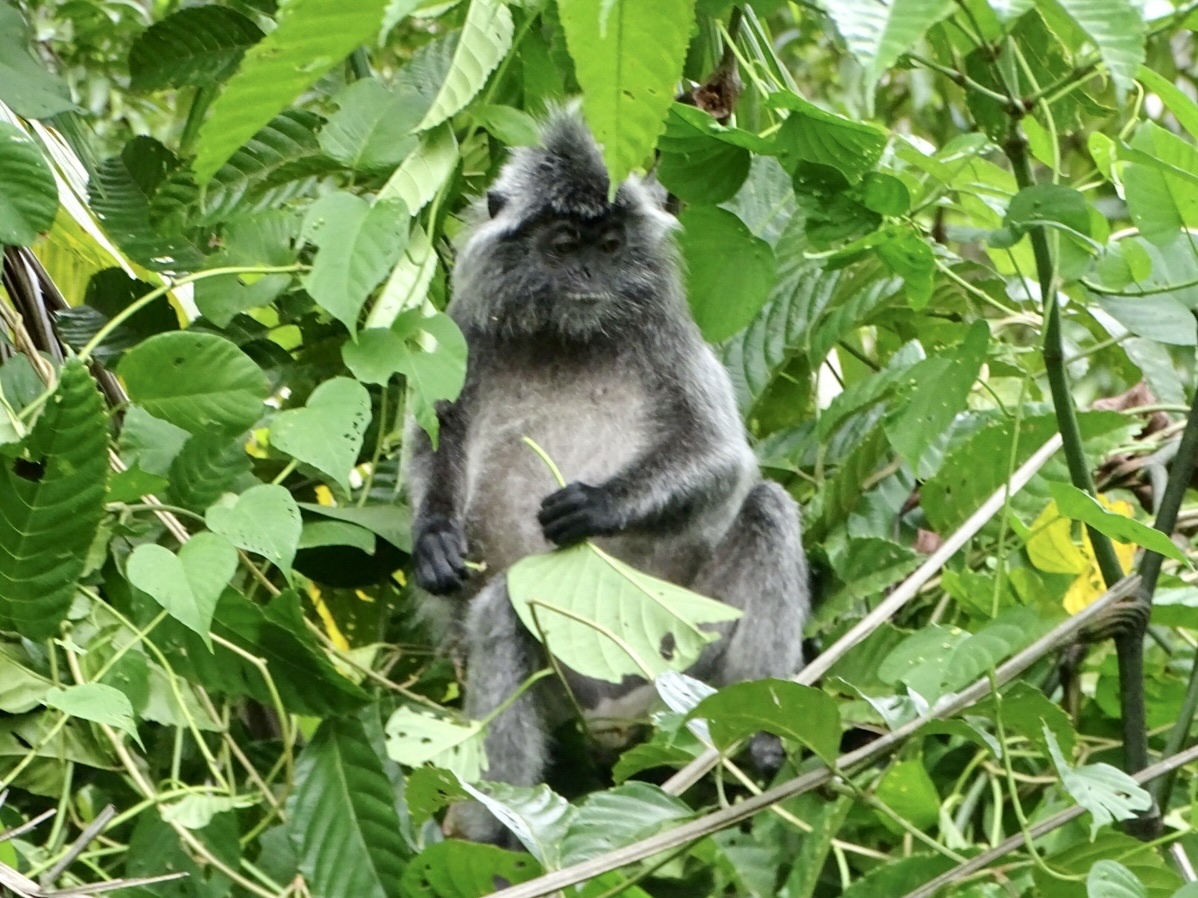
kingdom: Animalia
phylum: Chordata
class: Mammalia
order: Primates
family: Cercopithecidae
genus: Trachypithecus
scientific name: Trachypithecus cristatus
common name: Silvery lutung
